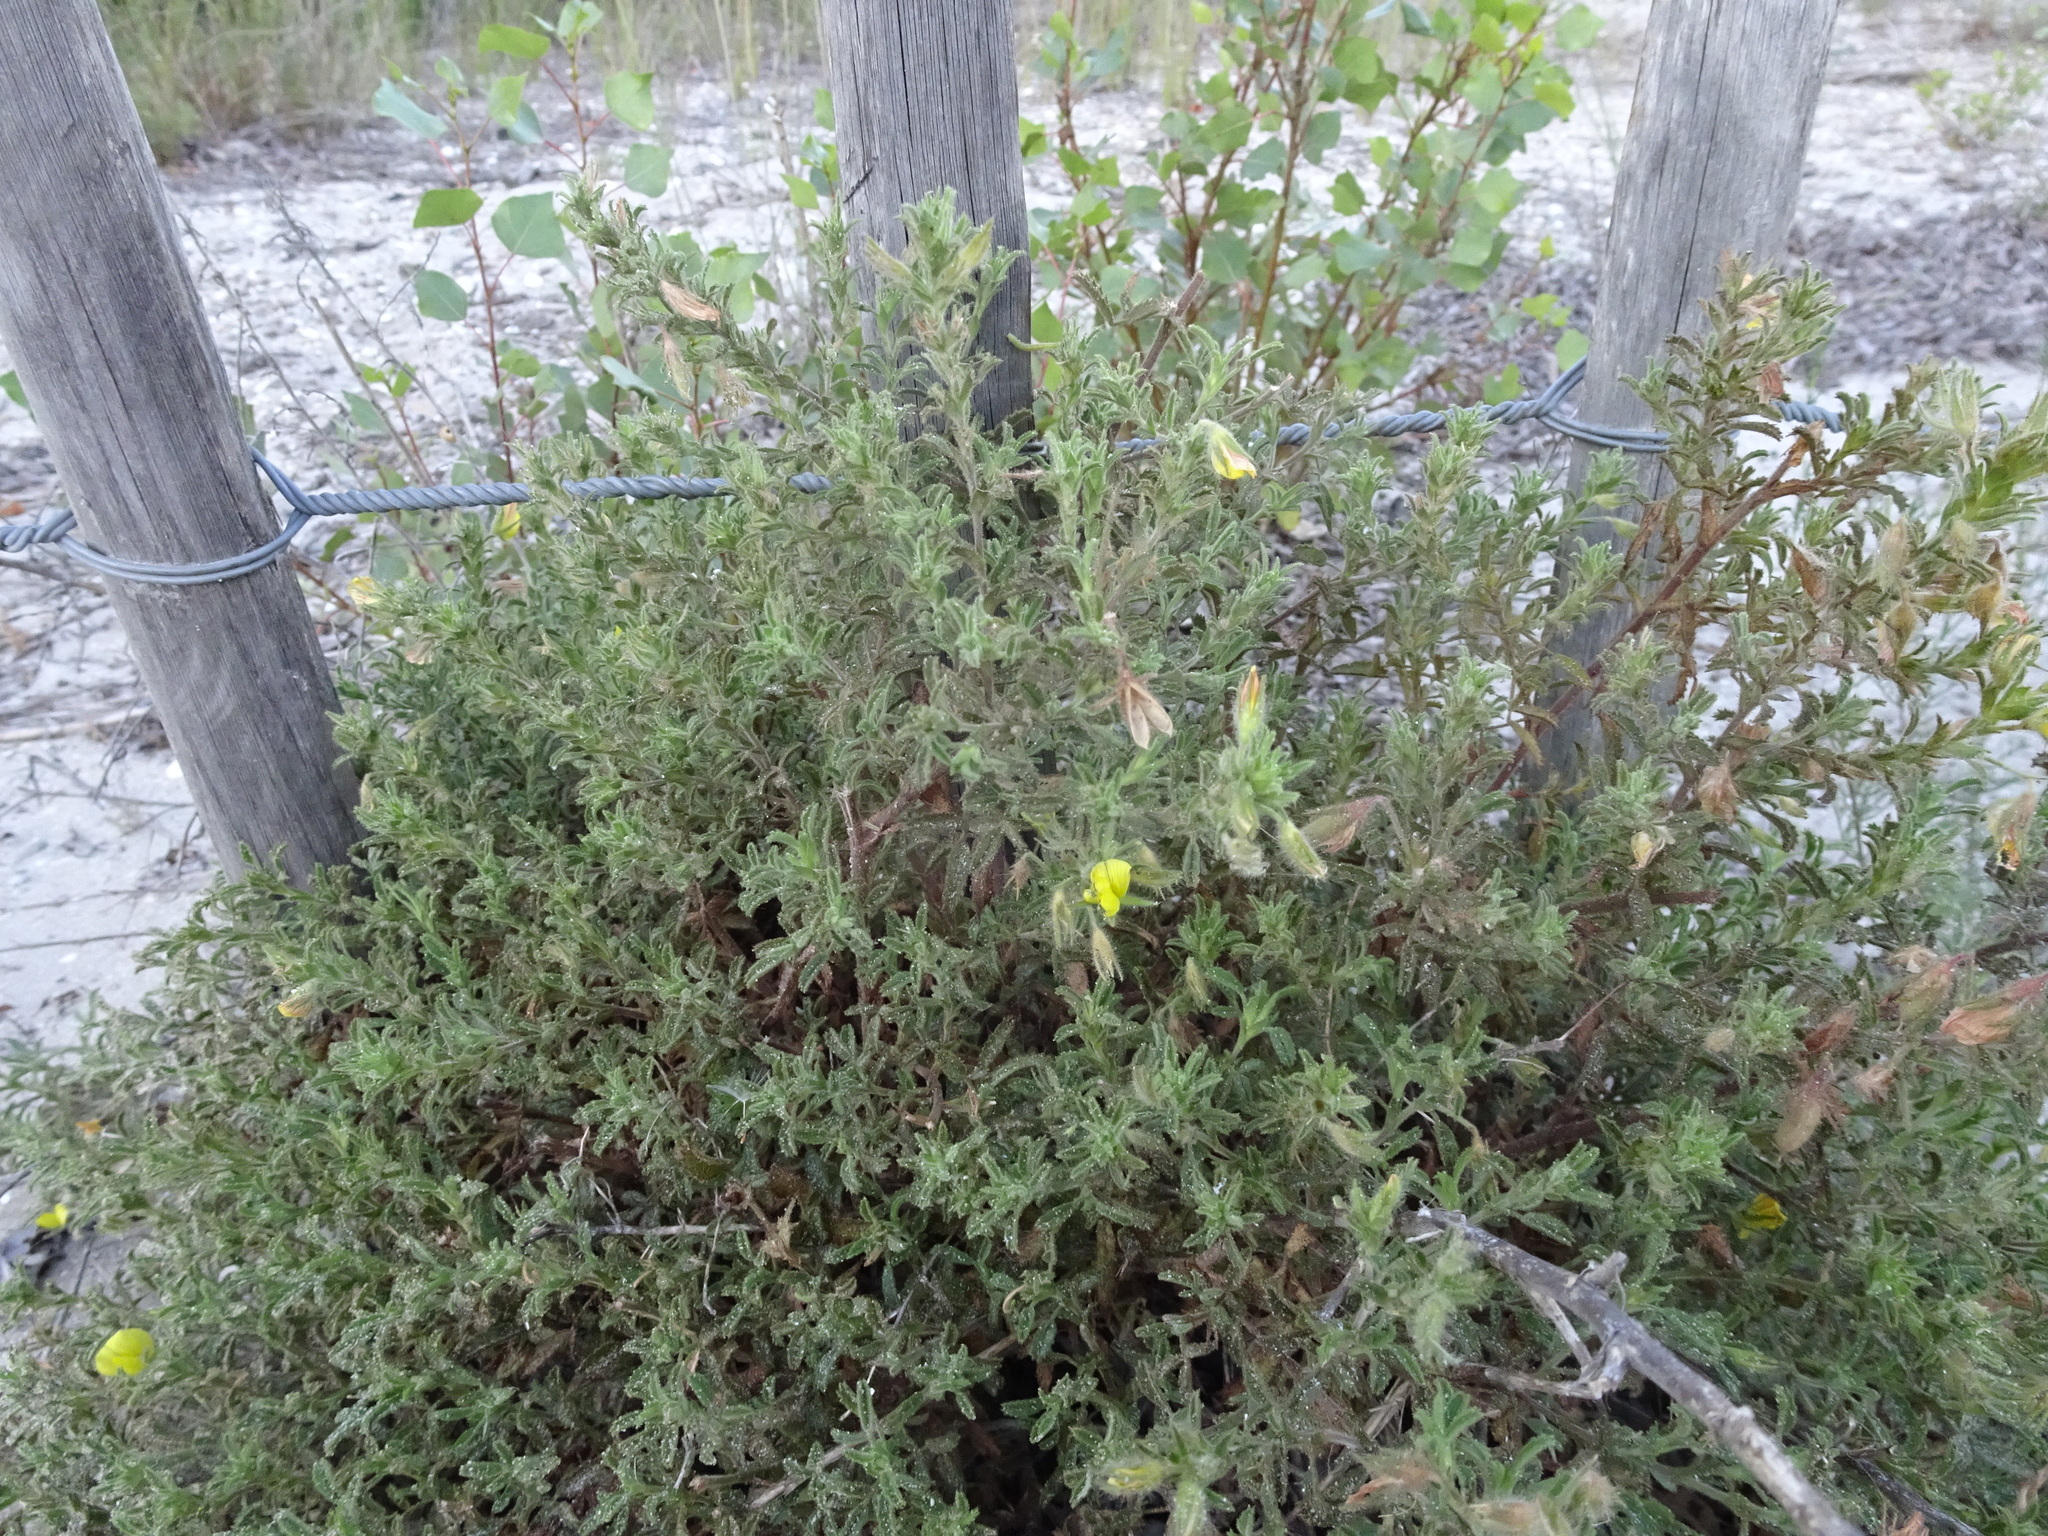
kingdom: Plantae
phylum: Tracheophyta
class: Magnoliopsida
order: Fabales
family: Fabaceae
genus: Ononis
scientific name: Ononis natrix
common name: Yellow restharrow
